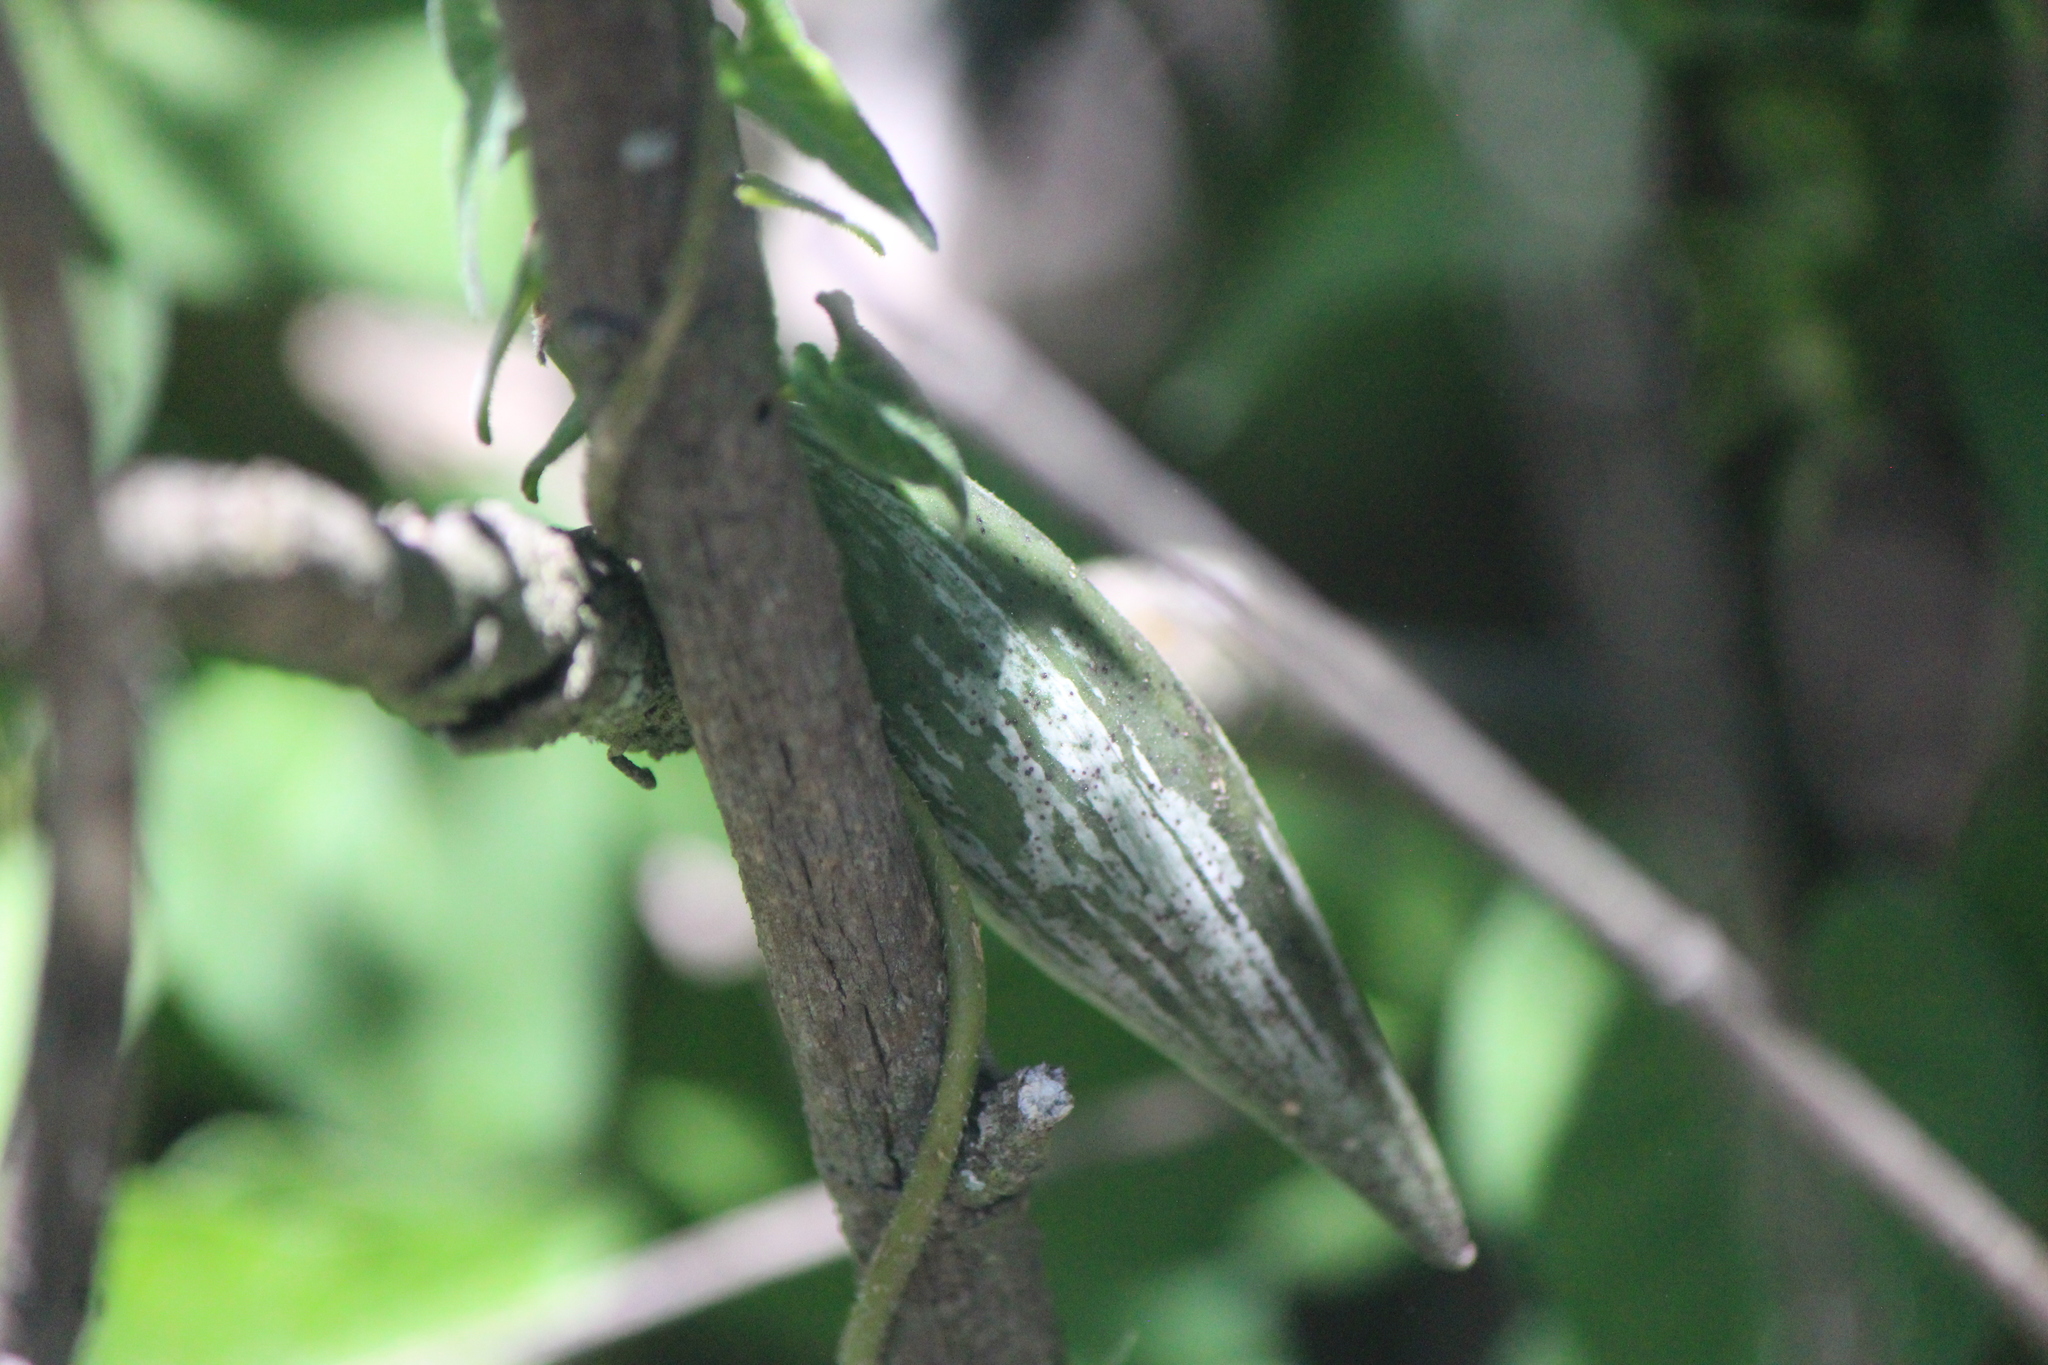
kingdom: Plantae
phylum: Tracheophyta
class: Magnoliopsida
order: Gentianales
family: Apocynaceae
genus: Chthamalia
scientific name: Chthamalia schaffneri
